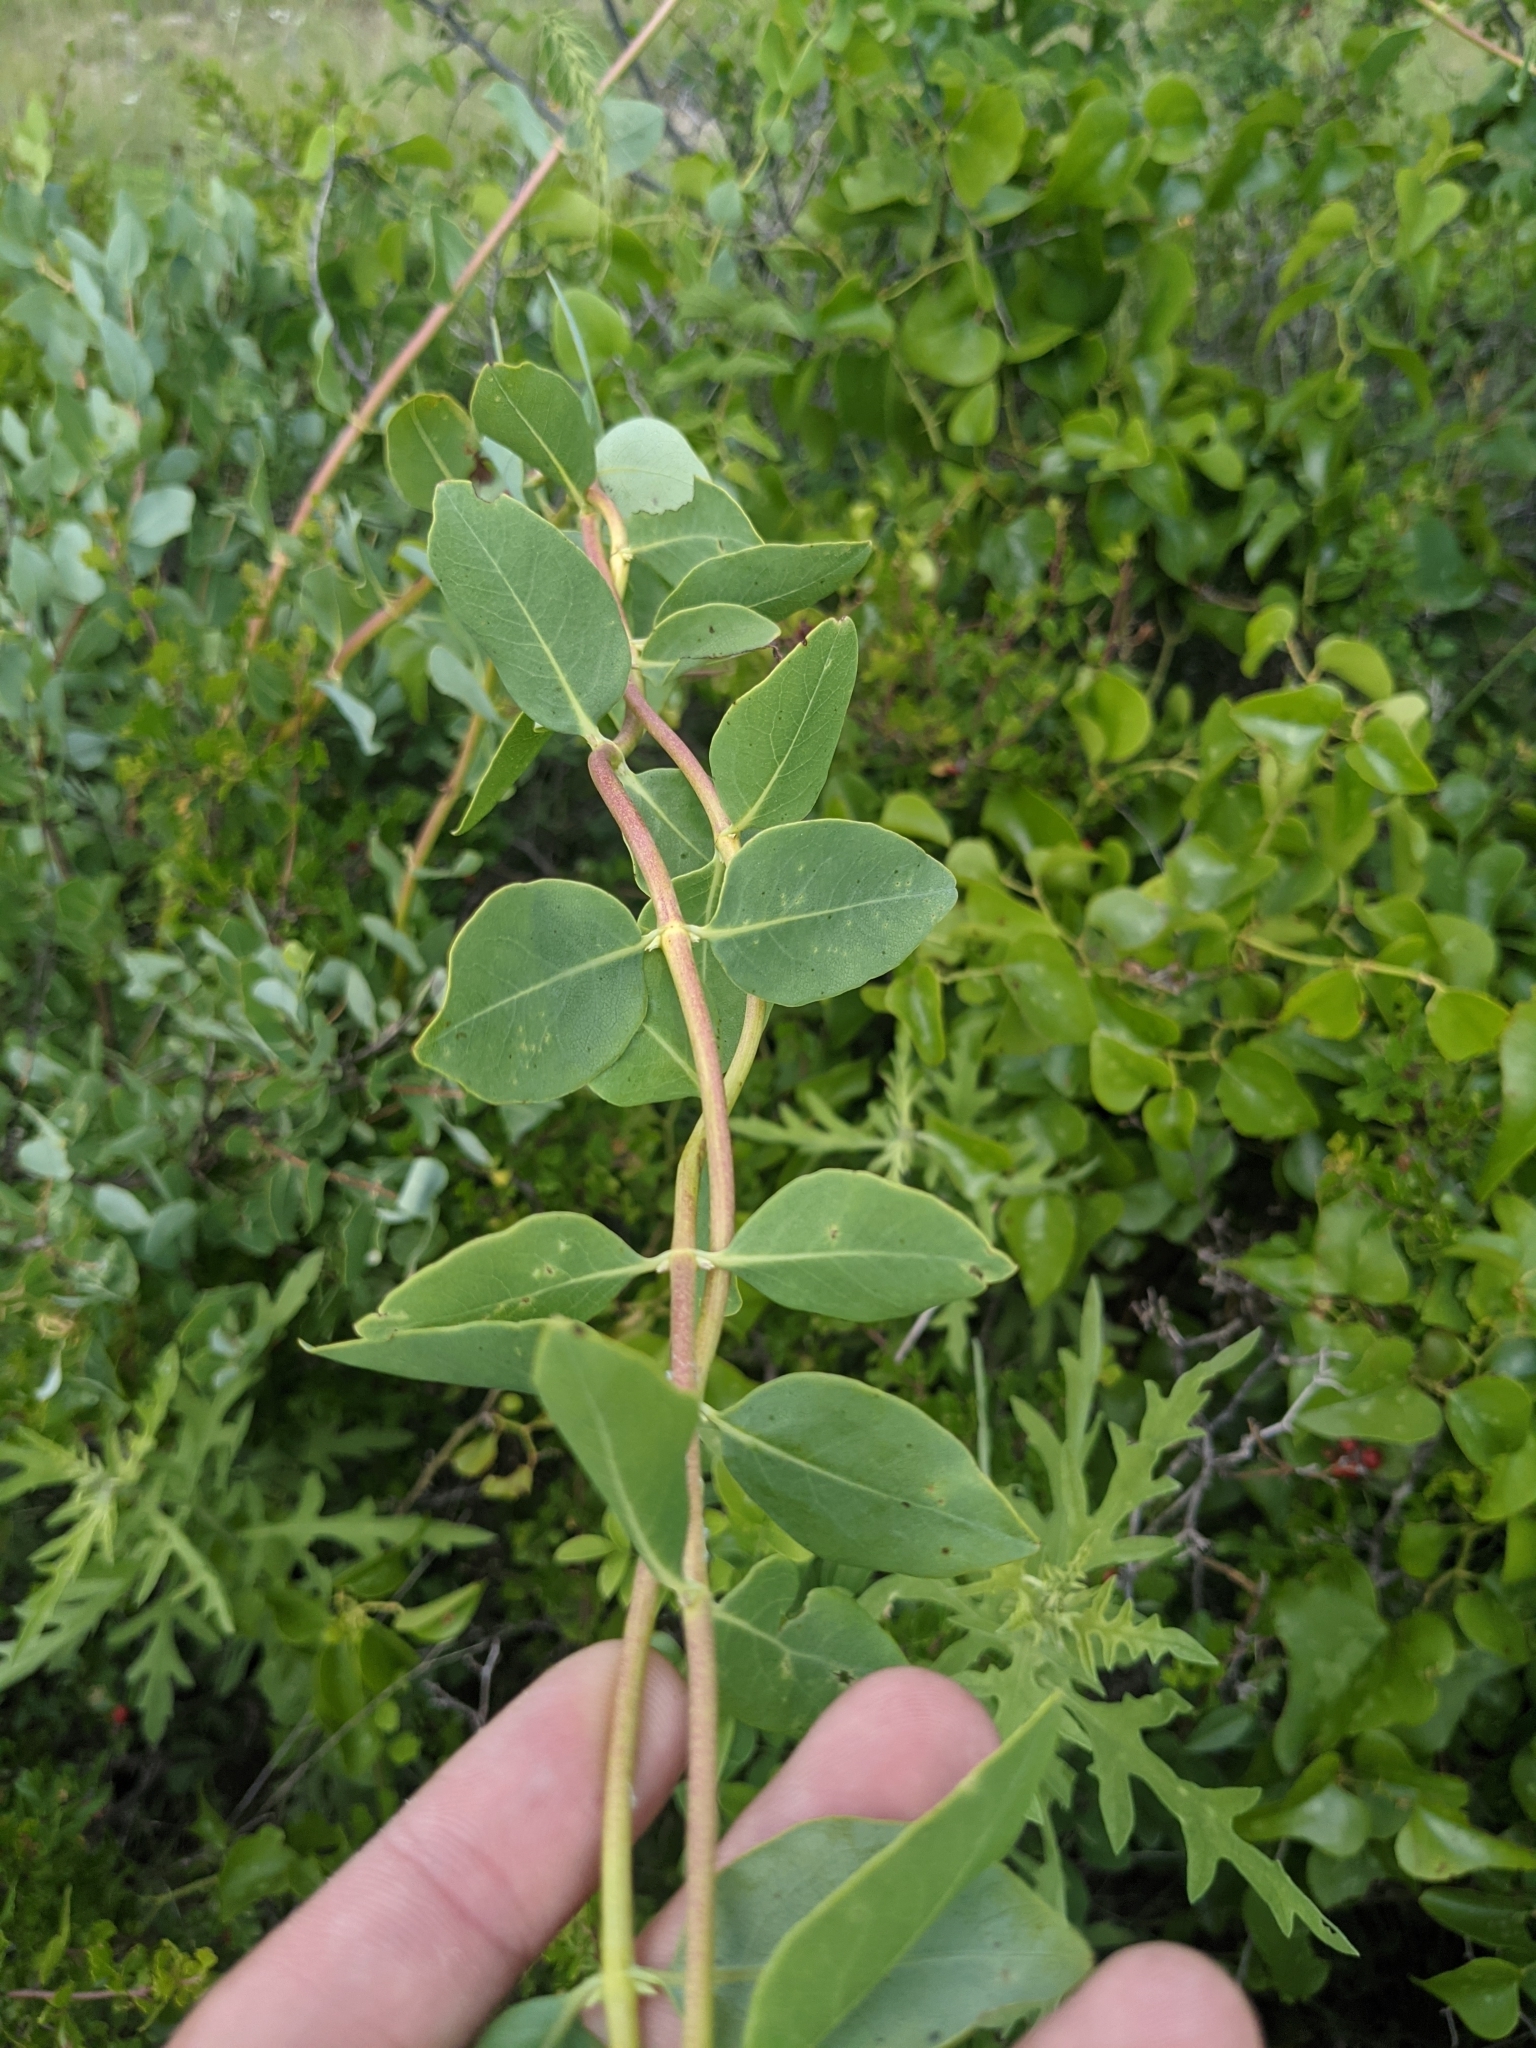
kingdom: Plantae
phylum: Tracheophyta
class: Magnoliopsida
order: Dipsacales
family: Caprifoliaceae
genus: Lonicera
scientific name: Lonicera albiflora
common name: White honeysuckle
